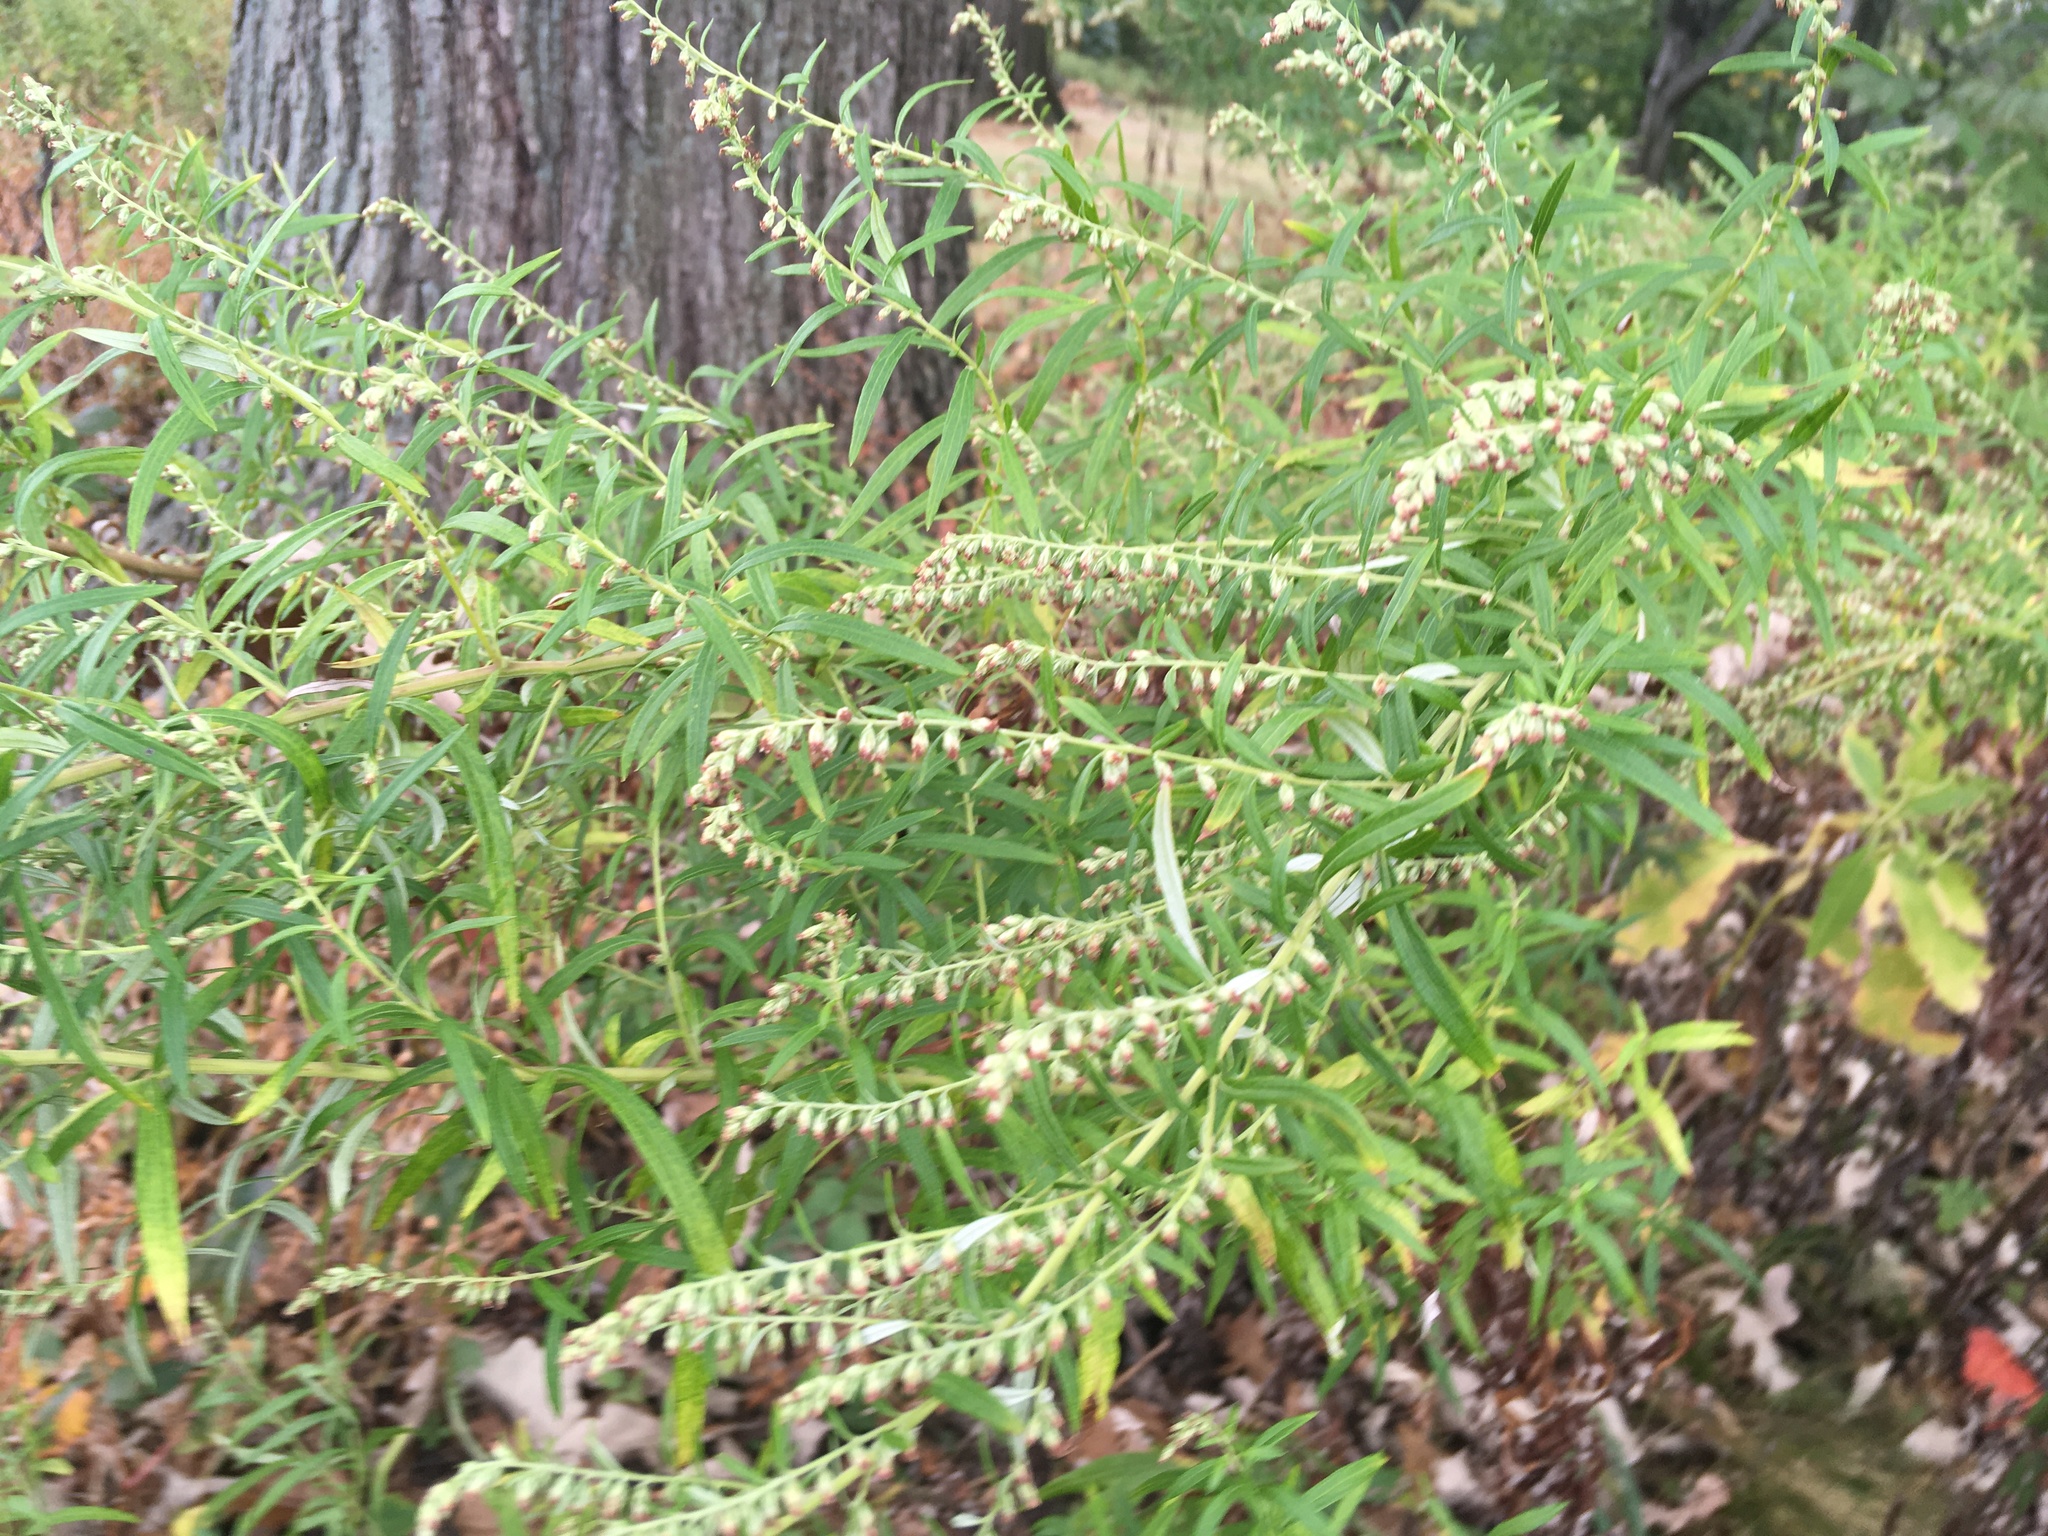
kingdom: Plantae
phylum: Tracheophyta
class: Magnoliopsida
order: Asterales
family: Asteraceae
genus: Artemisia
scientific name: Artemisia vulgaris
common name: Mugwort
